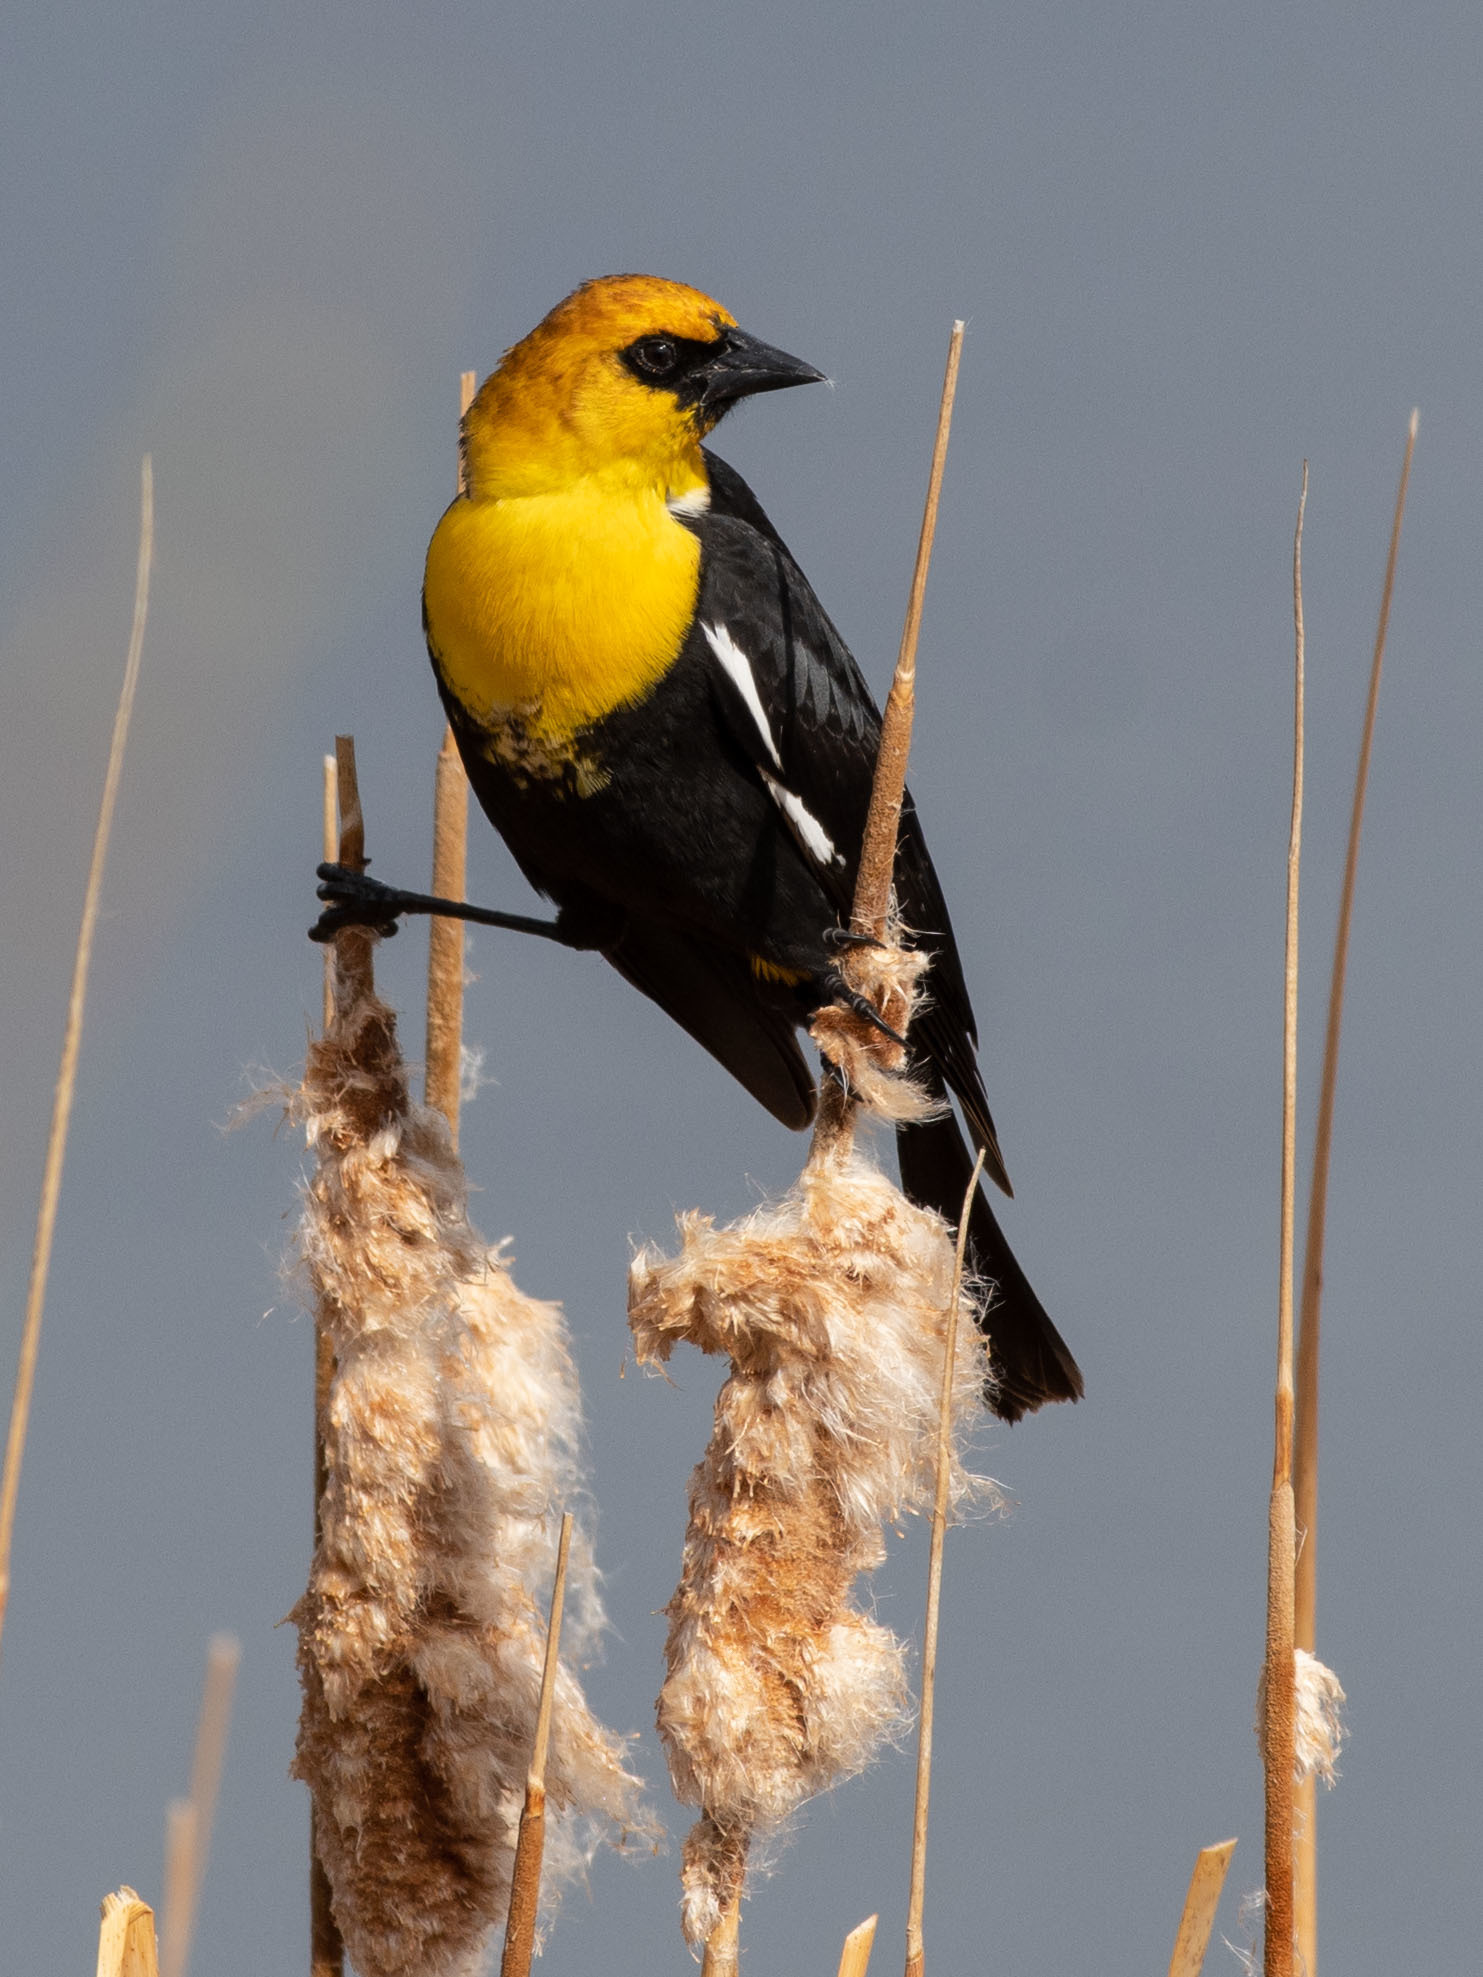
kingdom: Animalia
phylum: Chordata
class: Aves
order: Passeriformes
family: Icteridae
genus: Xanthocephalus
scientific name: Xanthocephalus xanthocephalus
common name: Yellow-headed blackbird
